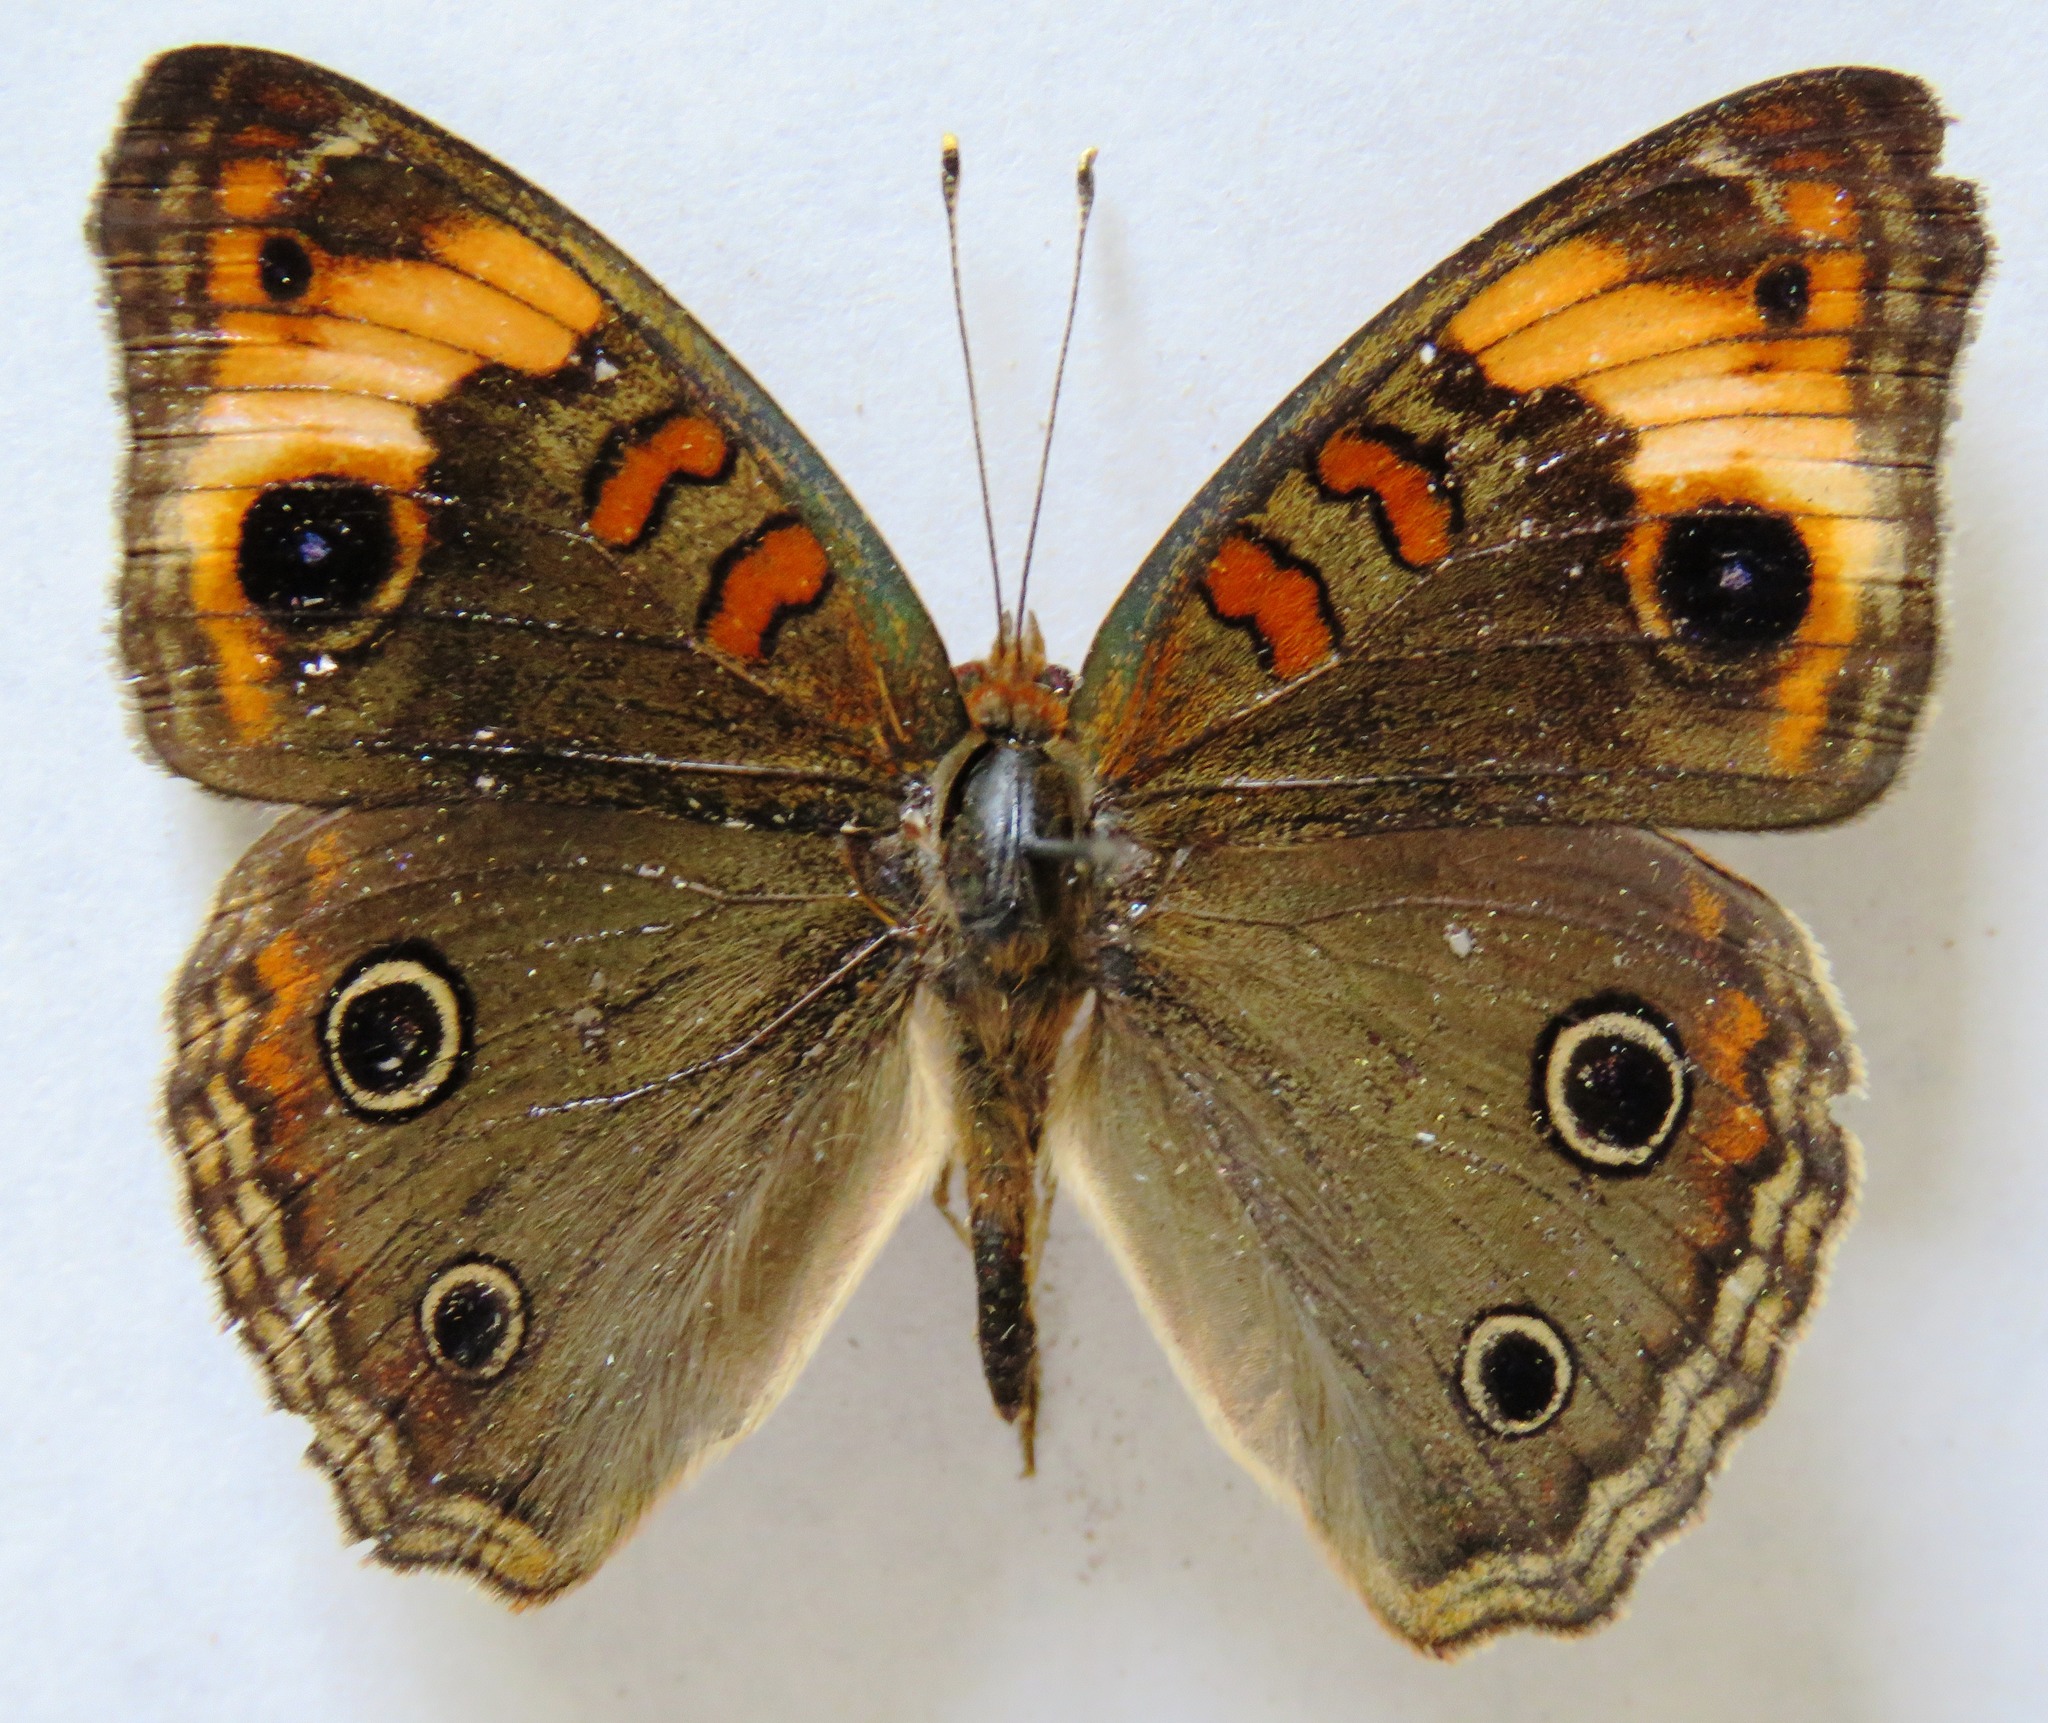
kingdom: Animalia
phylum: Arthropoda
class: Insecta
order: Lepidoptera
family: Nymphalidae
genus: Junonia
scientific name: Junonia lavinia
